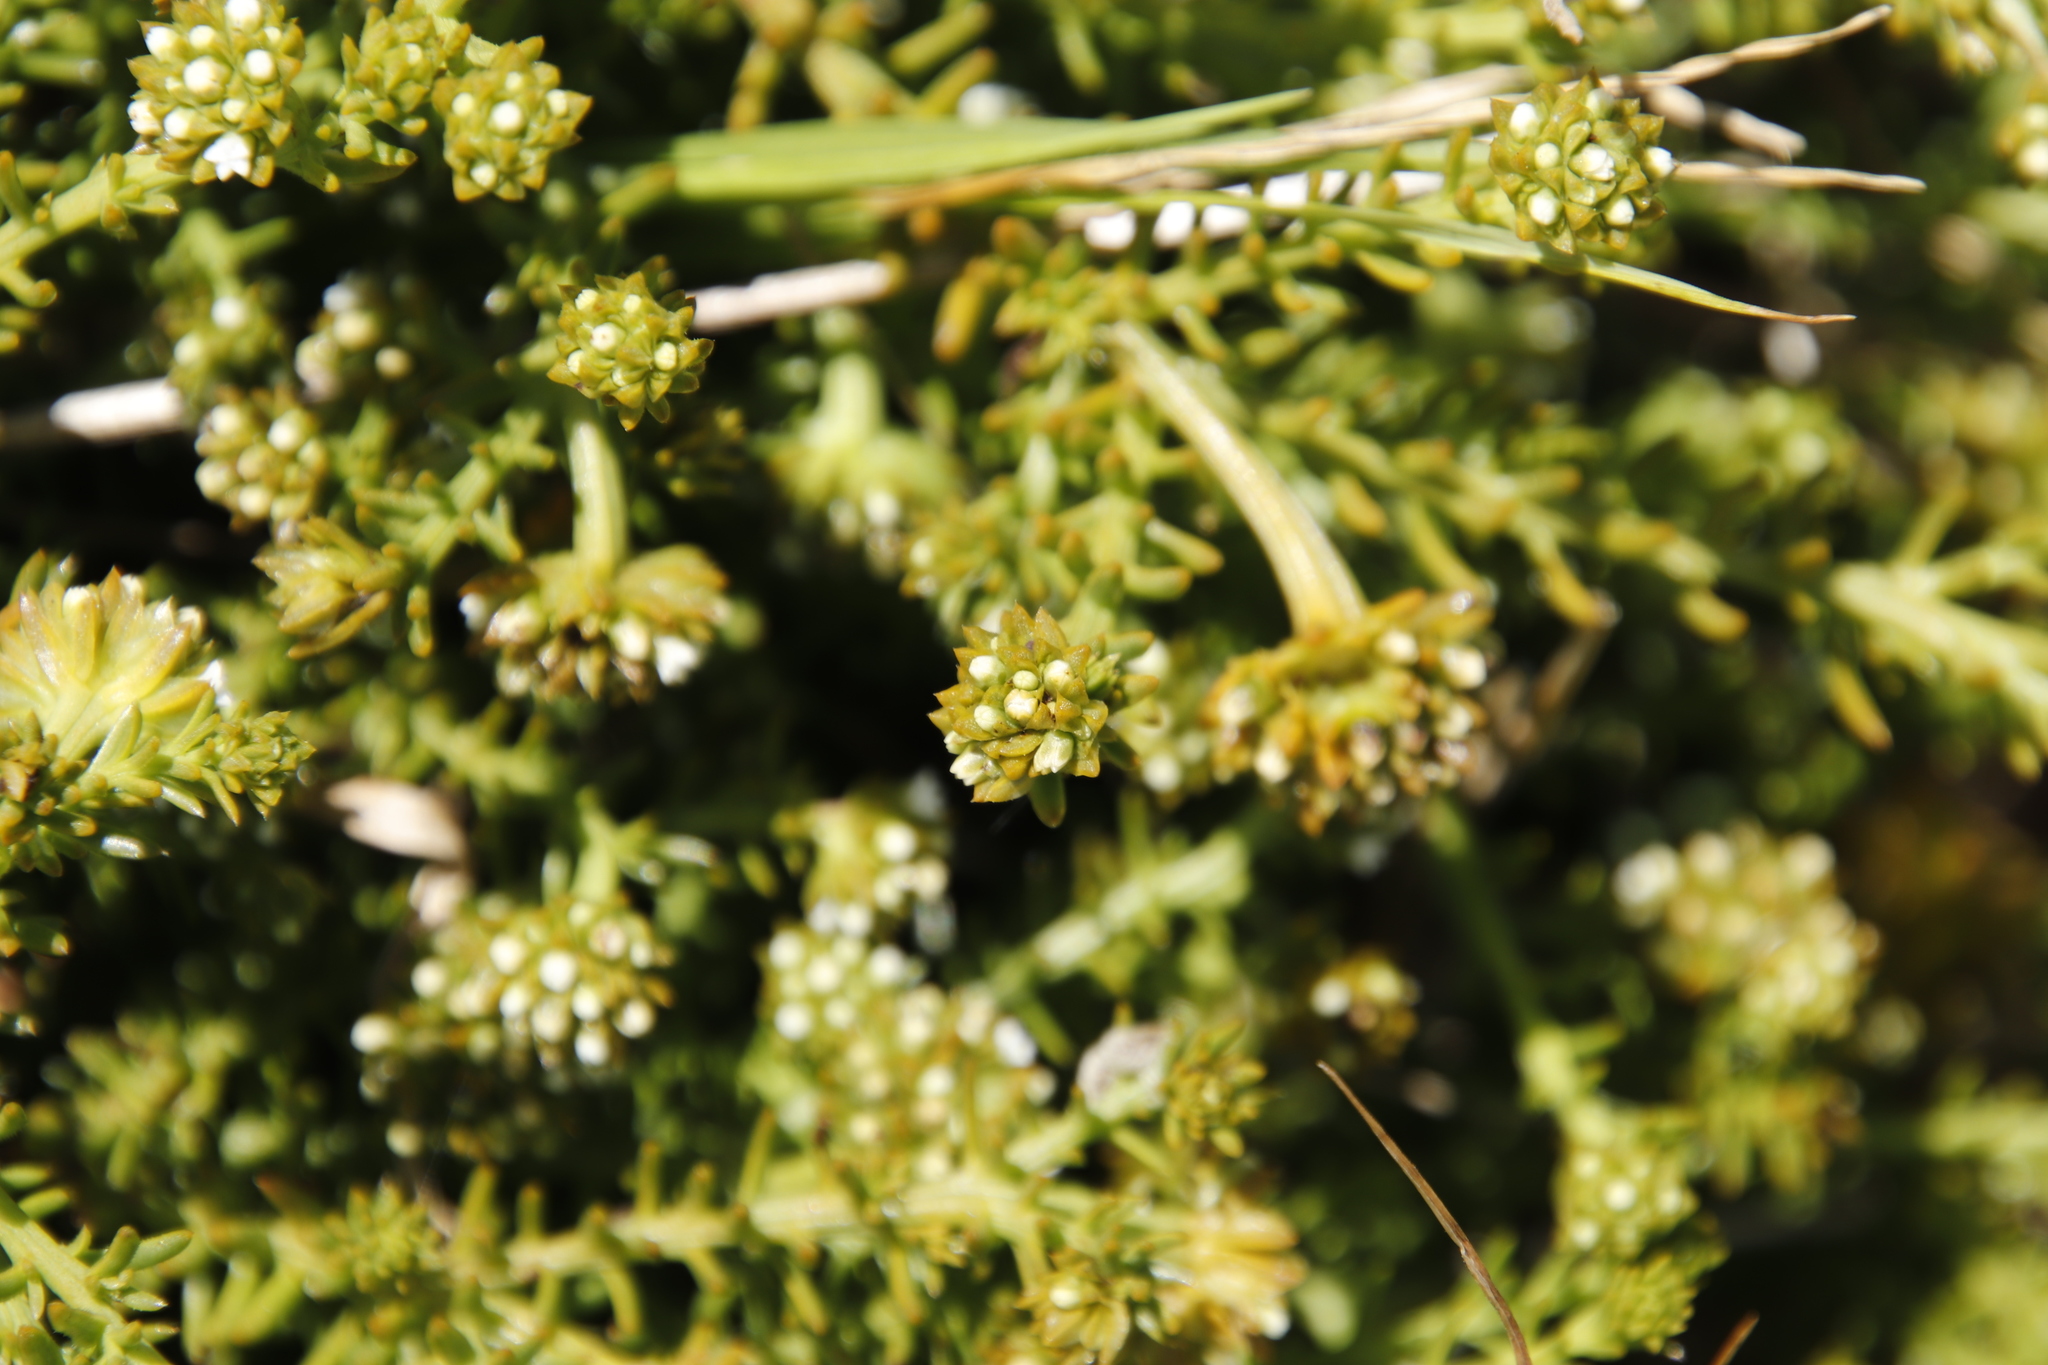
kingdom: Plantae
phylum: Tracheophyta
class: Magnoliopsida
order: Santalales
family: Thesiaceae
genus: Thesium
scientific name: Thesium capitatum
